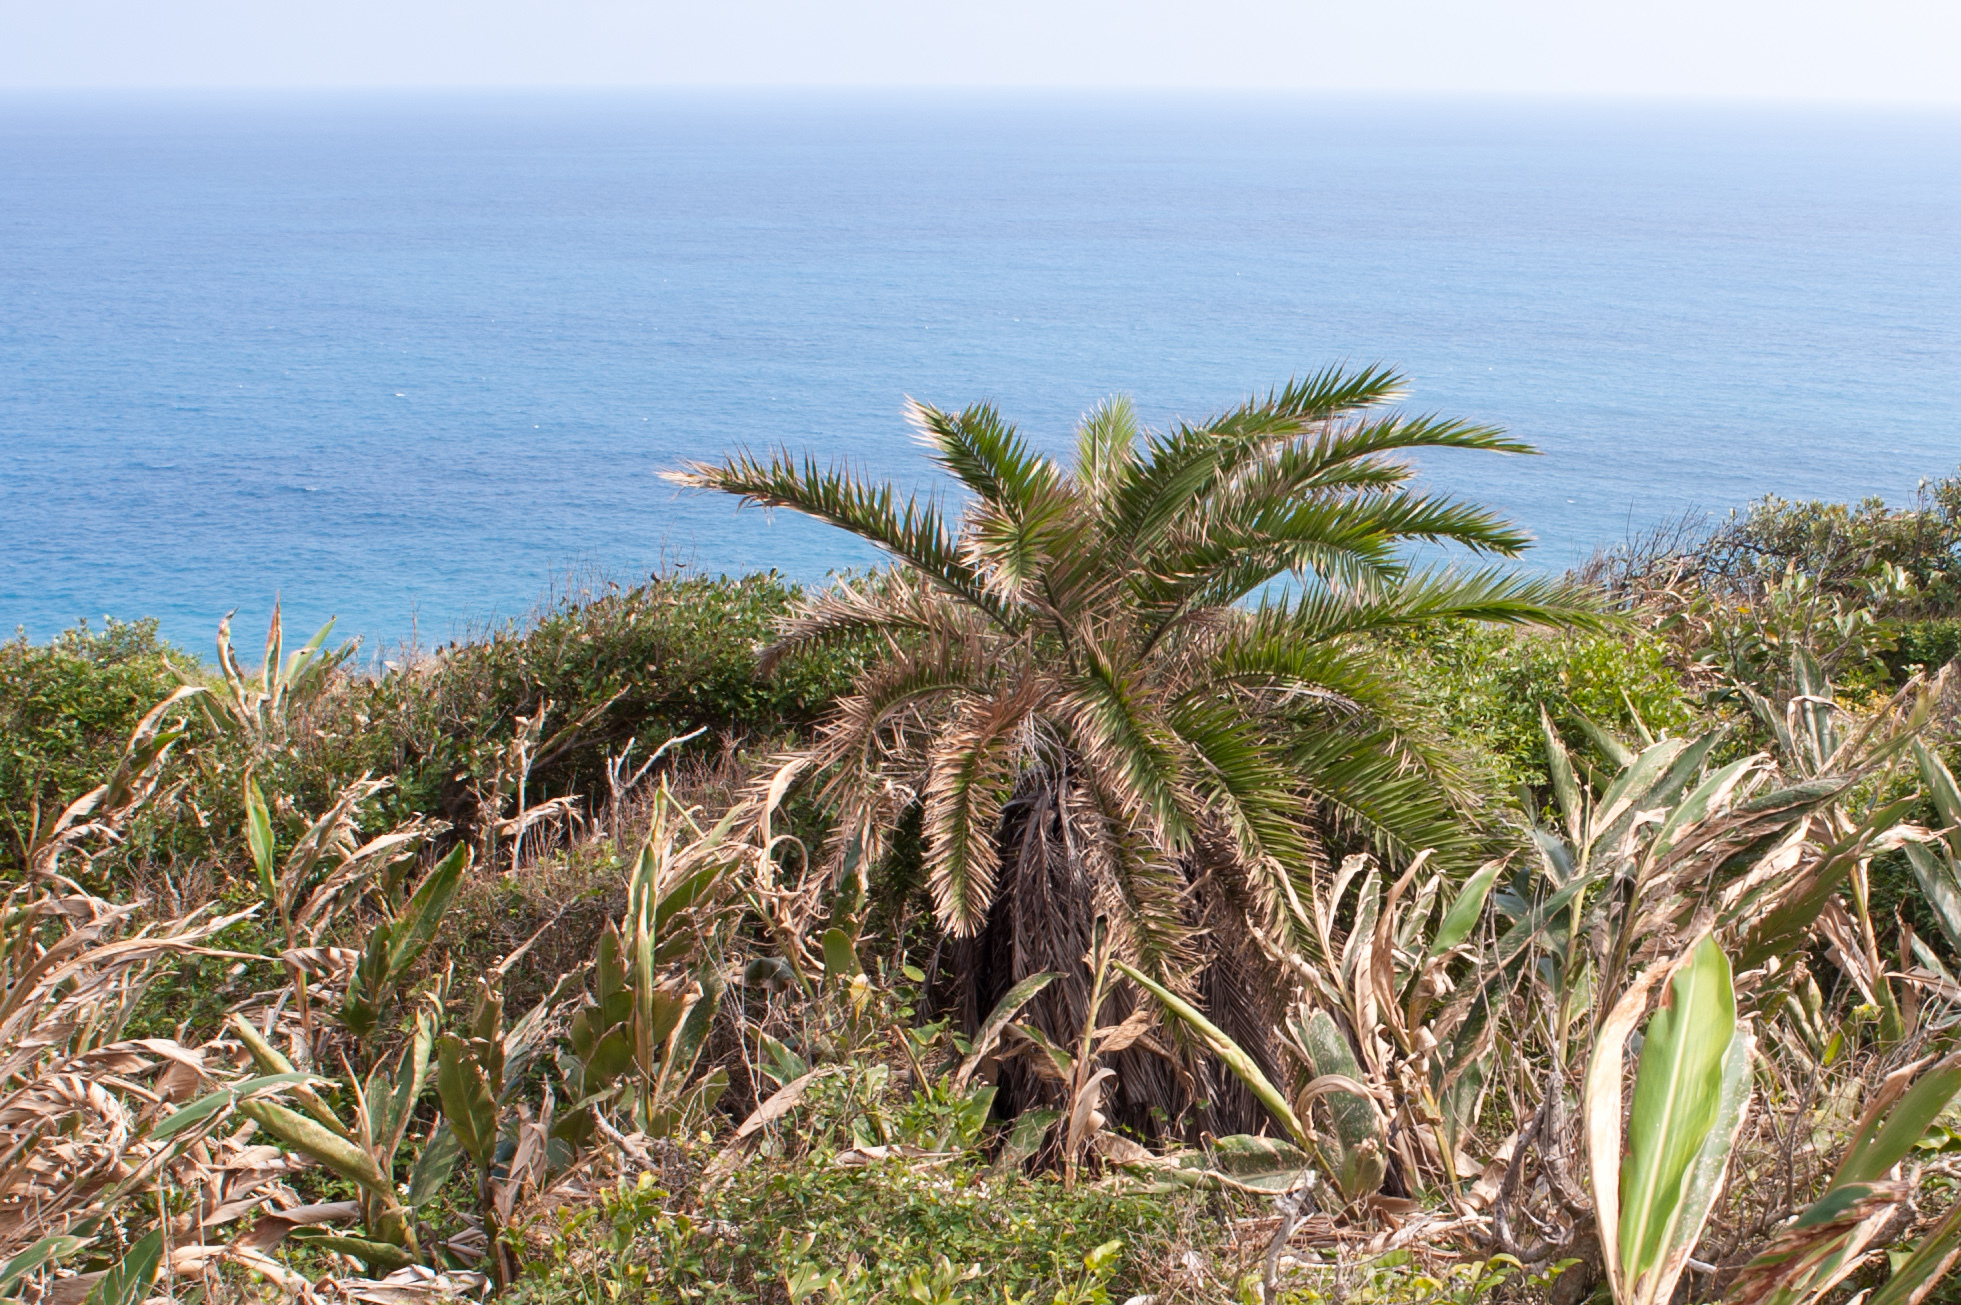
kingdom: Plantae
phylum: Tracheophyta
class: Liliopsida
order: Arecales
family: Arecaceae
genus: Phoenix
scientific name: Phoenix loureiroi
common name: Loureiro's palm
